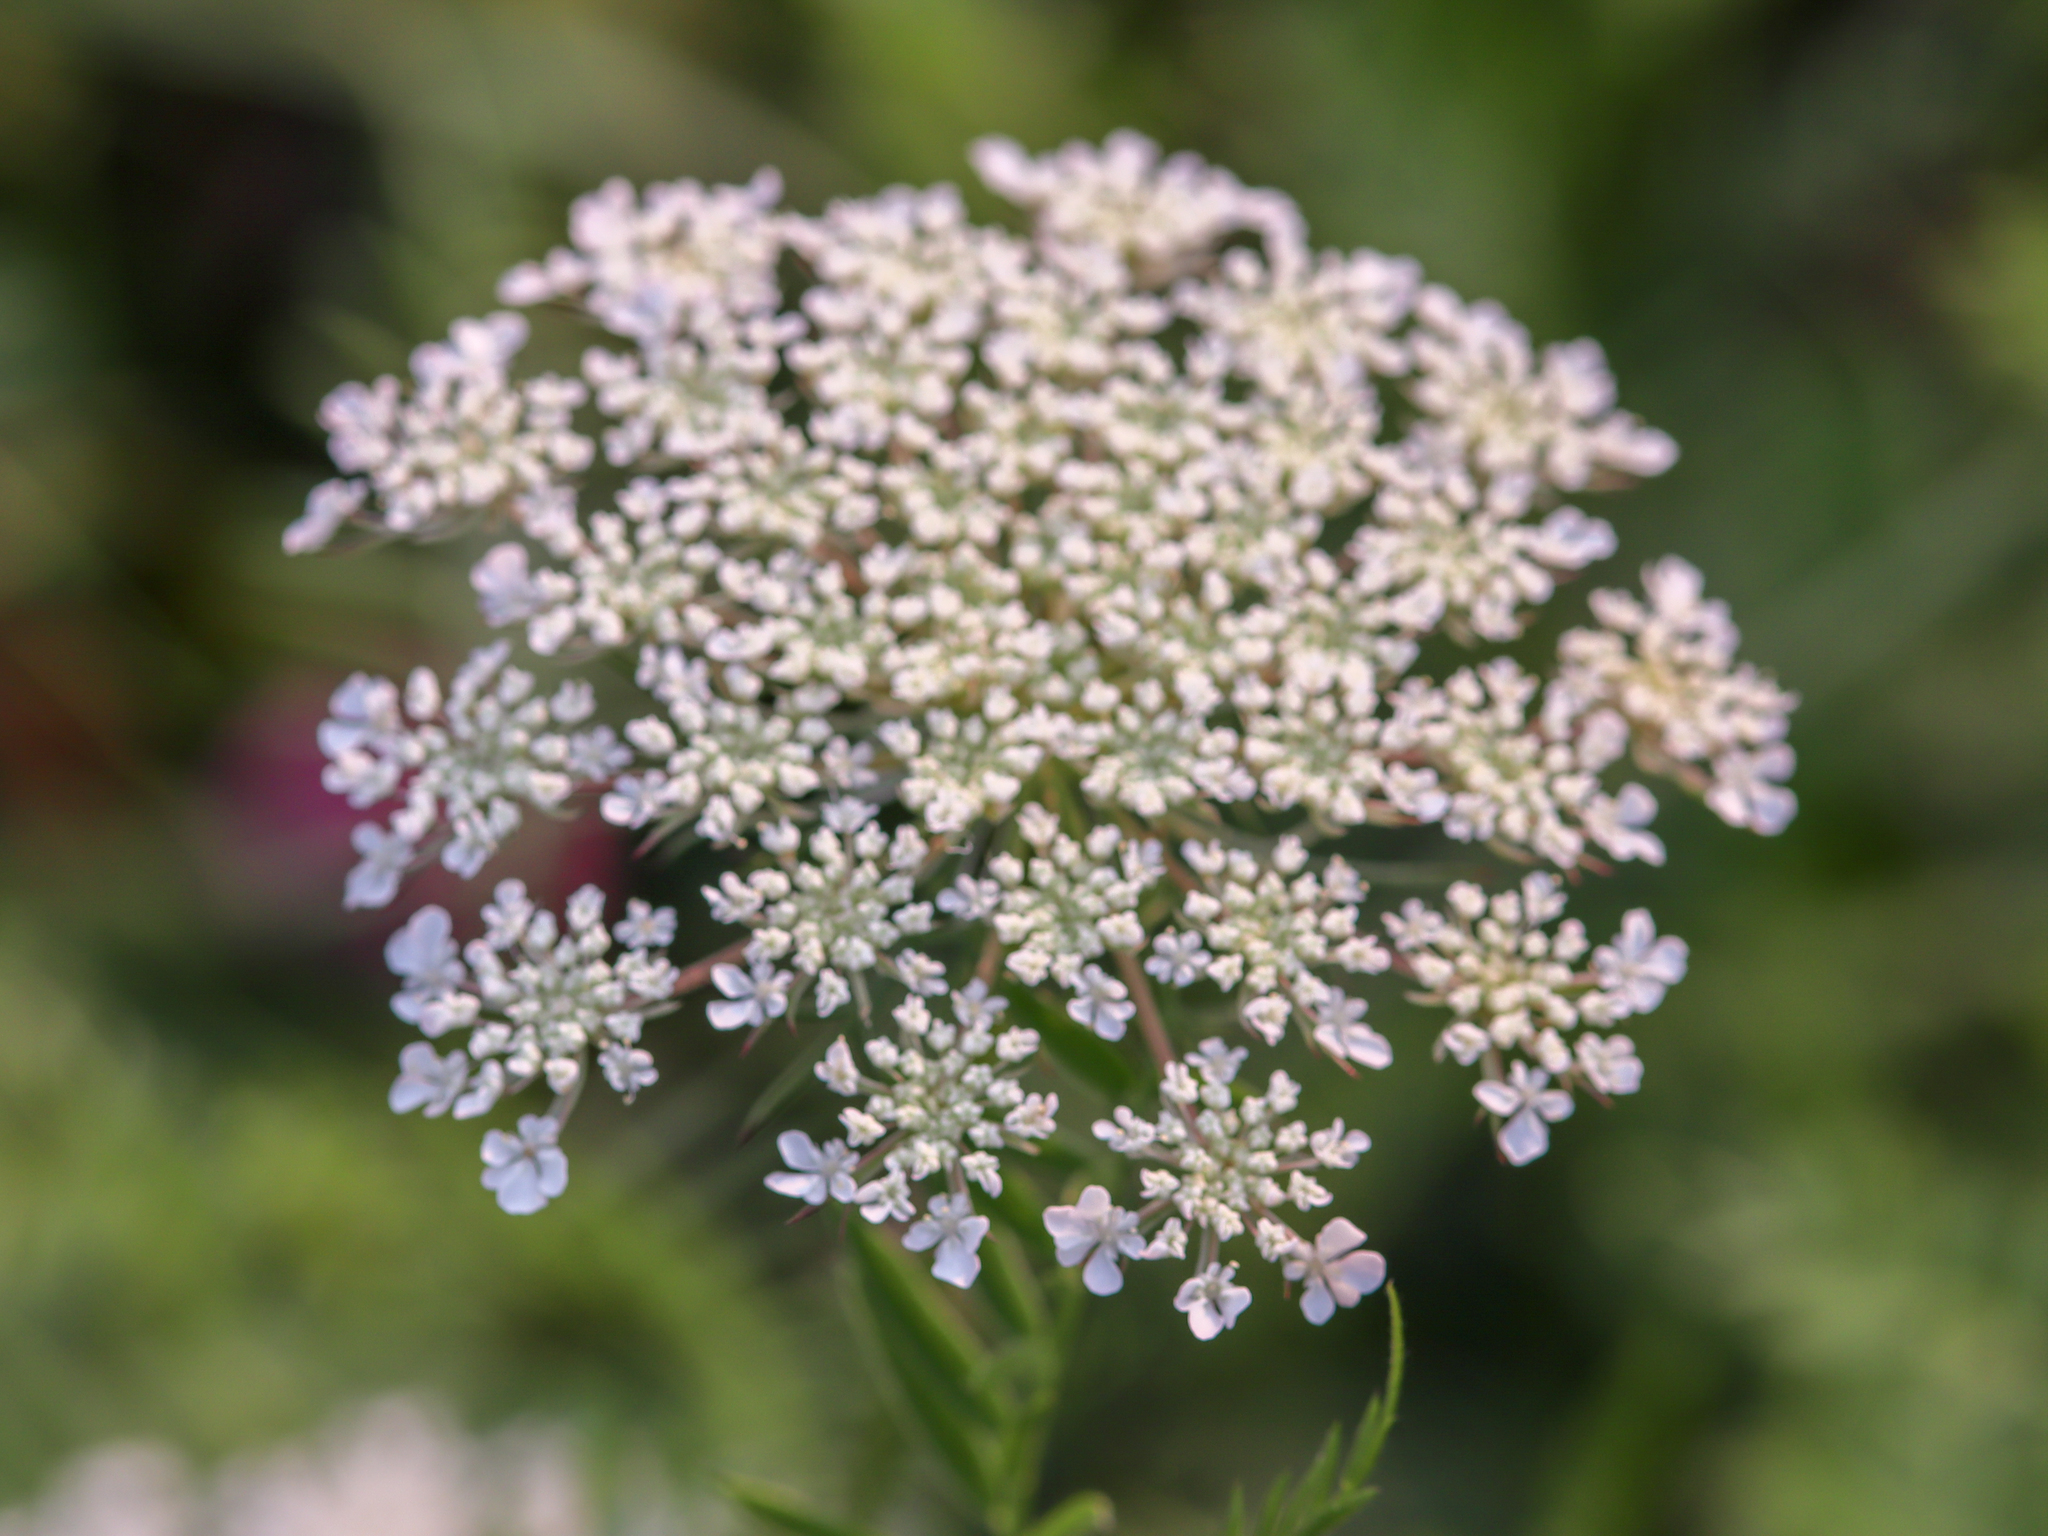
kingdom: Plantae
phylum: Tracheophyta
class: Magnoliopsida
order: Apiales
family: Apiaceae
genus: Daucus
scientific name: Daucus carota
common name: Wild carrot
